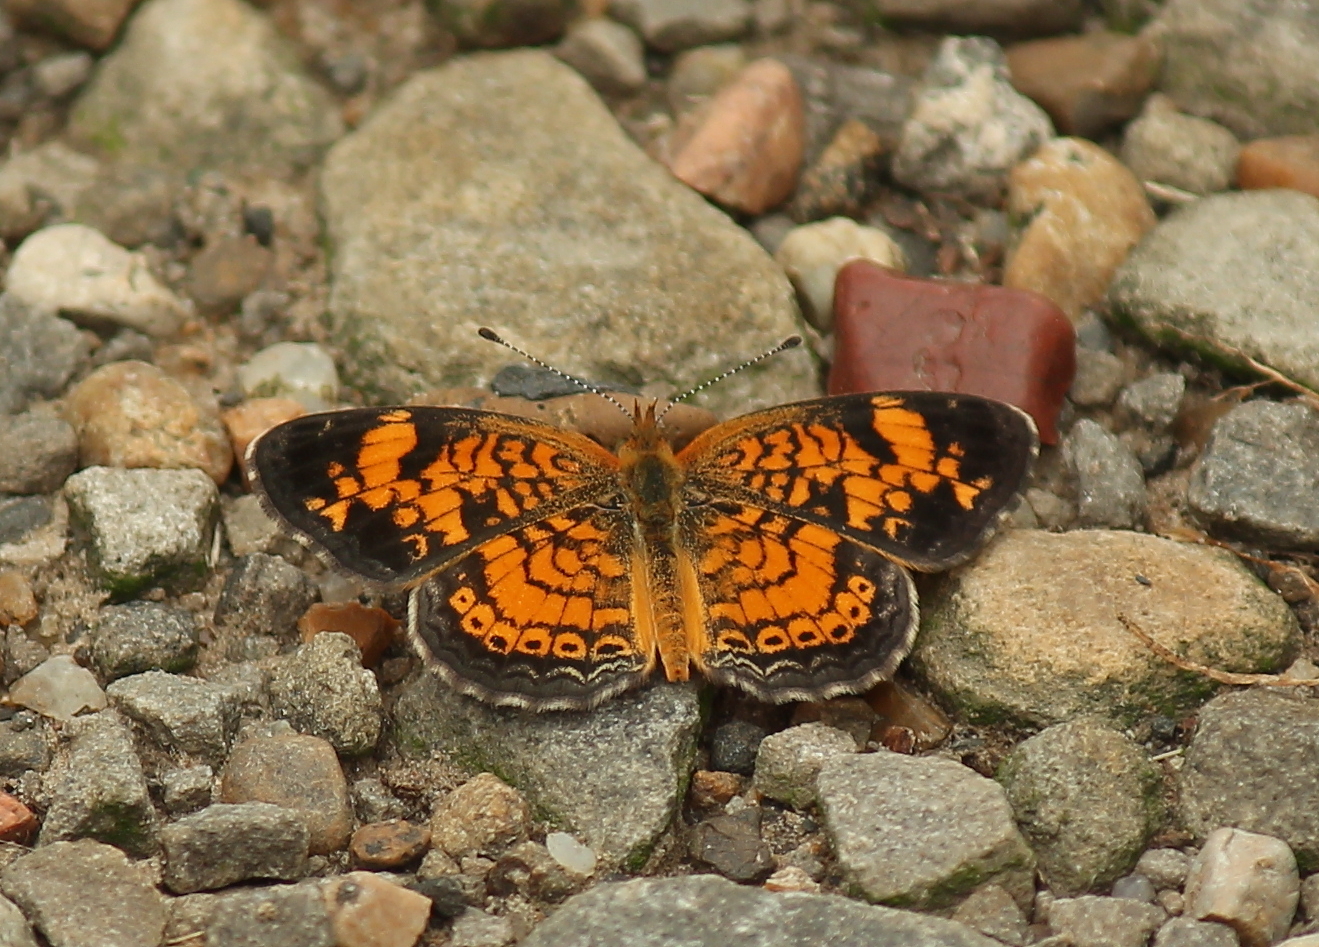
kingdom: Animalia
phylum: Arthropoda
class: Insecta
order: Lepidoptera
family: Nymphalidae
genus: Phyciodes
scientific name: Phyciodes tharos
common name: Pearl crescent
